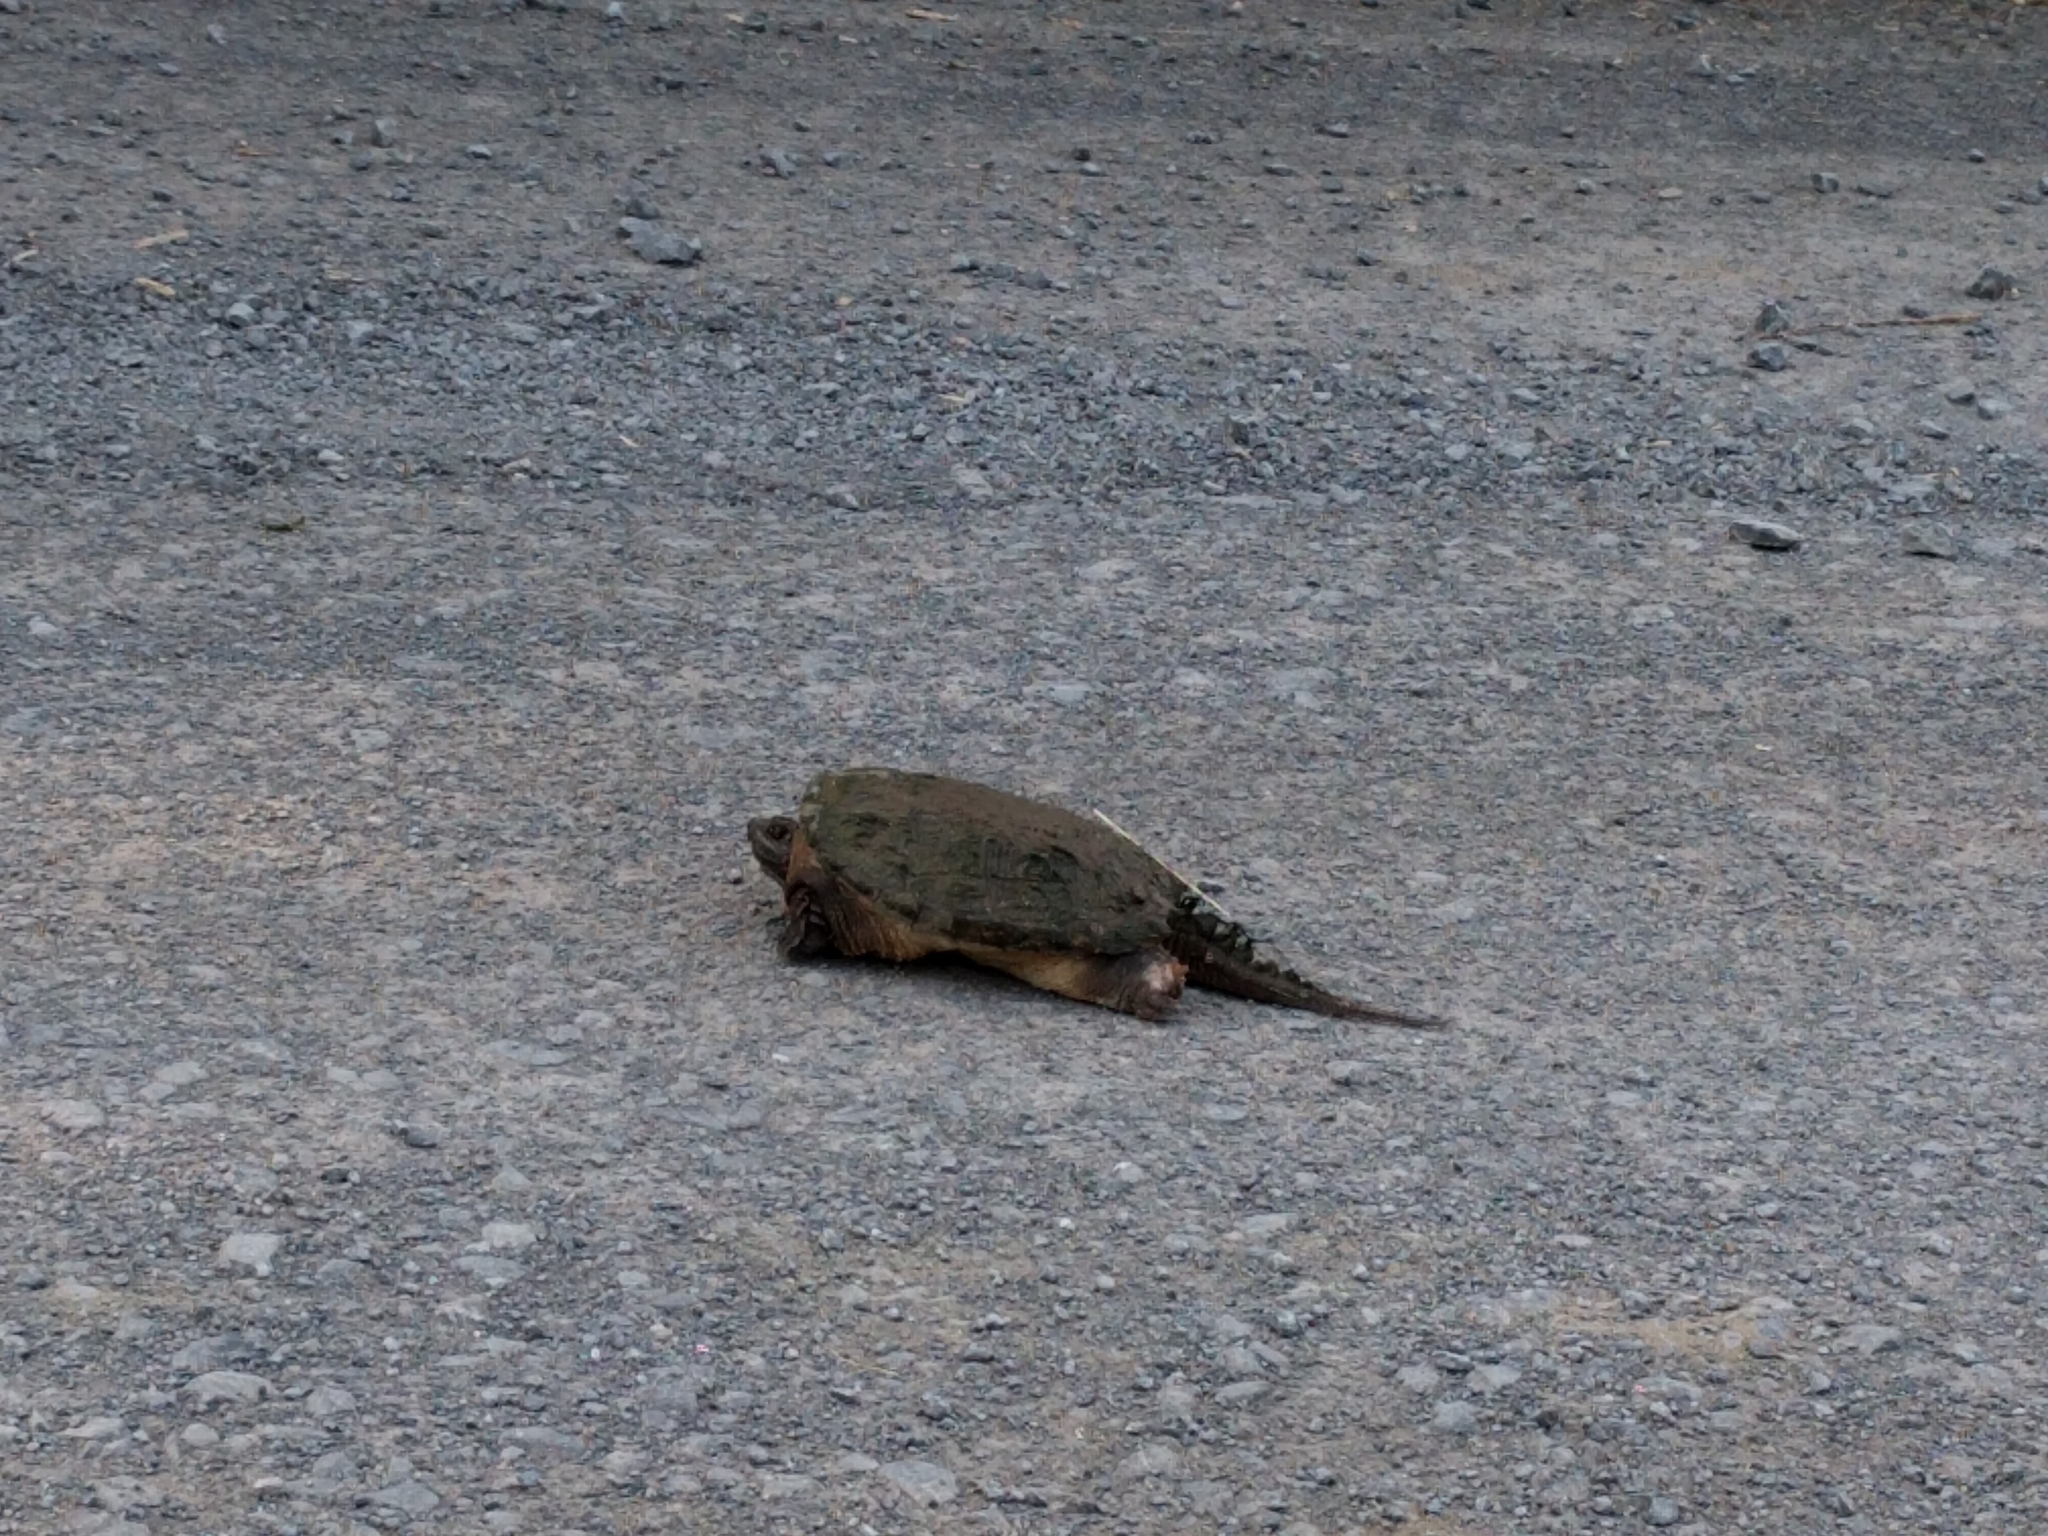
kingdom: Animalia
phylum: Chordata
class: Testudines
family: Chelydridae
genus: Chelydra
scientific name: Chelydra serpentina
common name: Common snapping turtle
